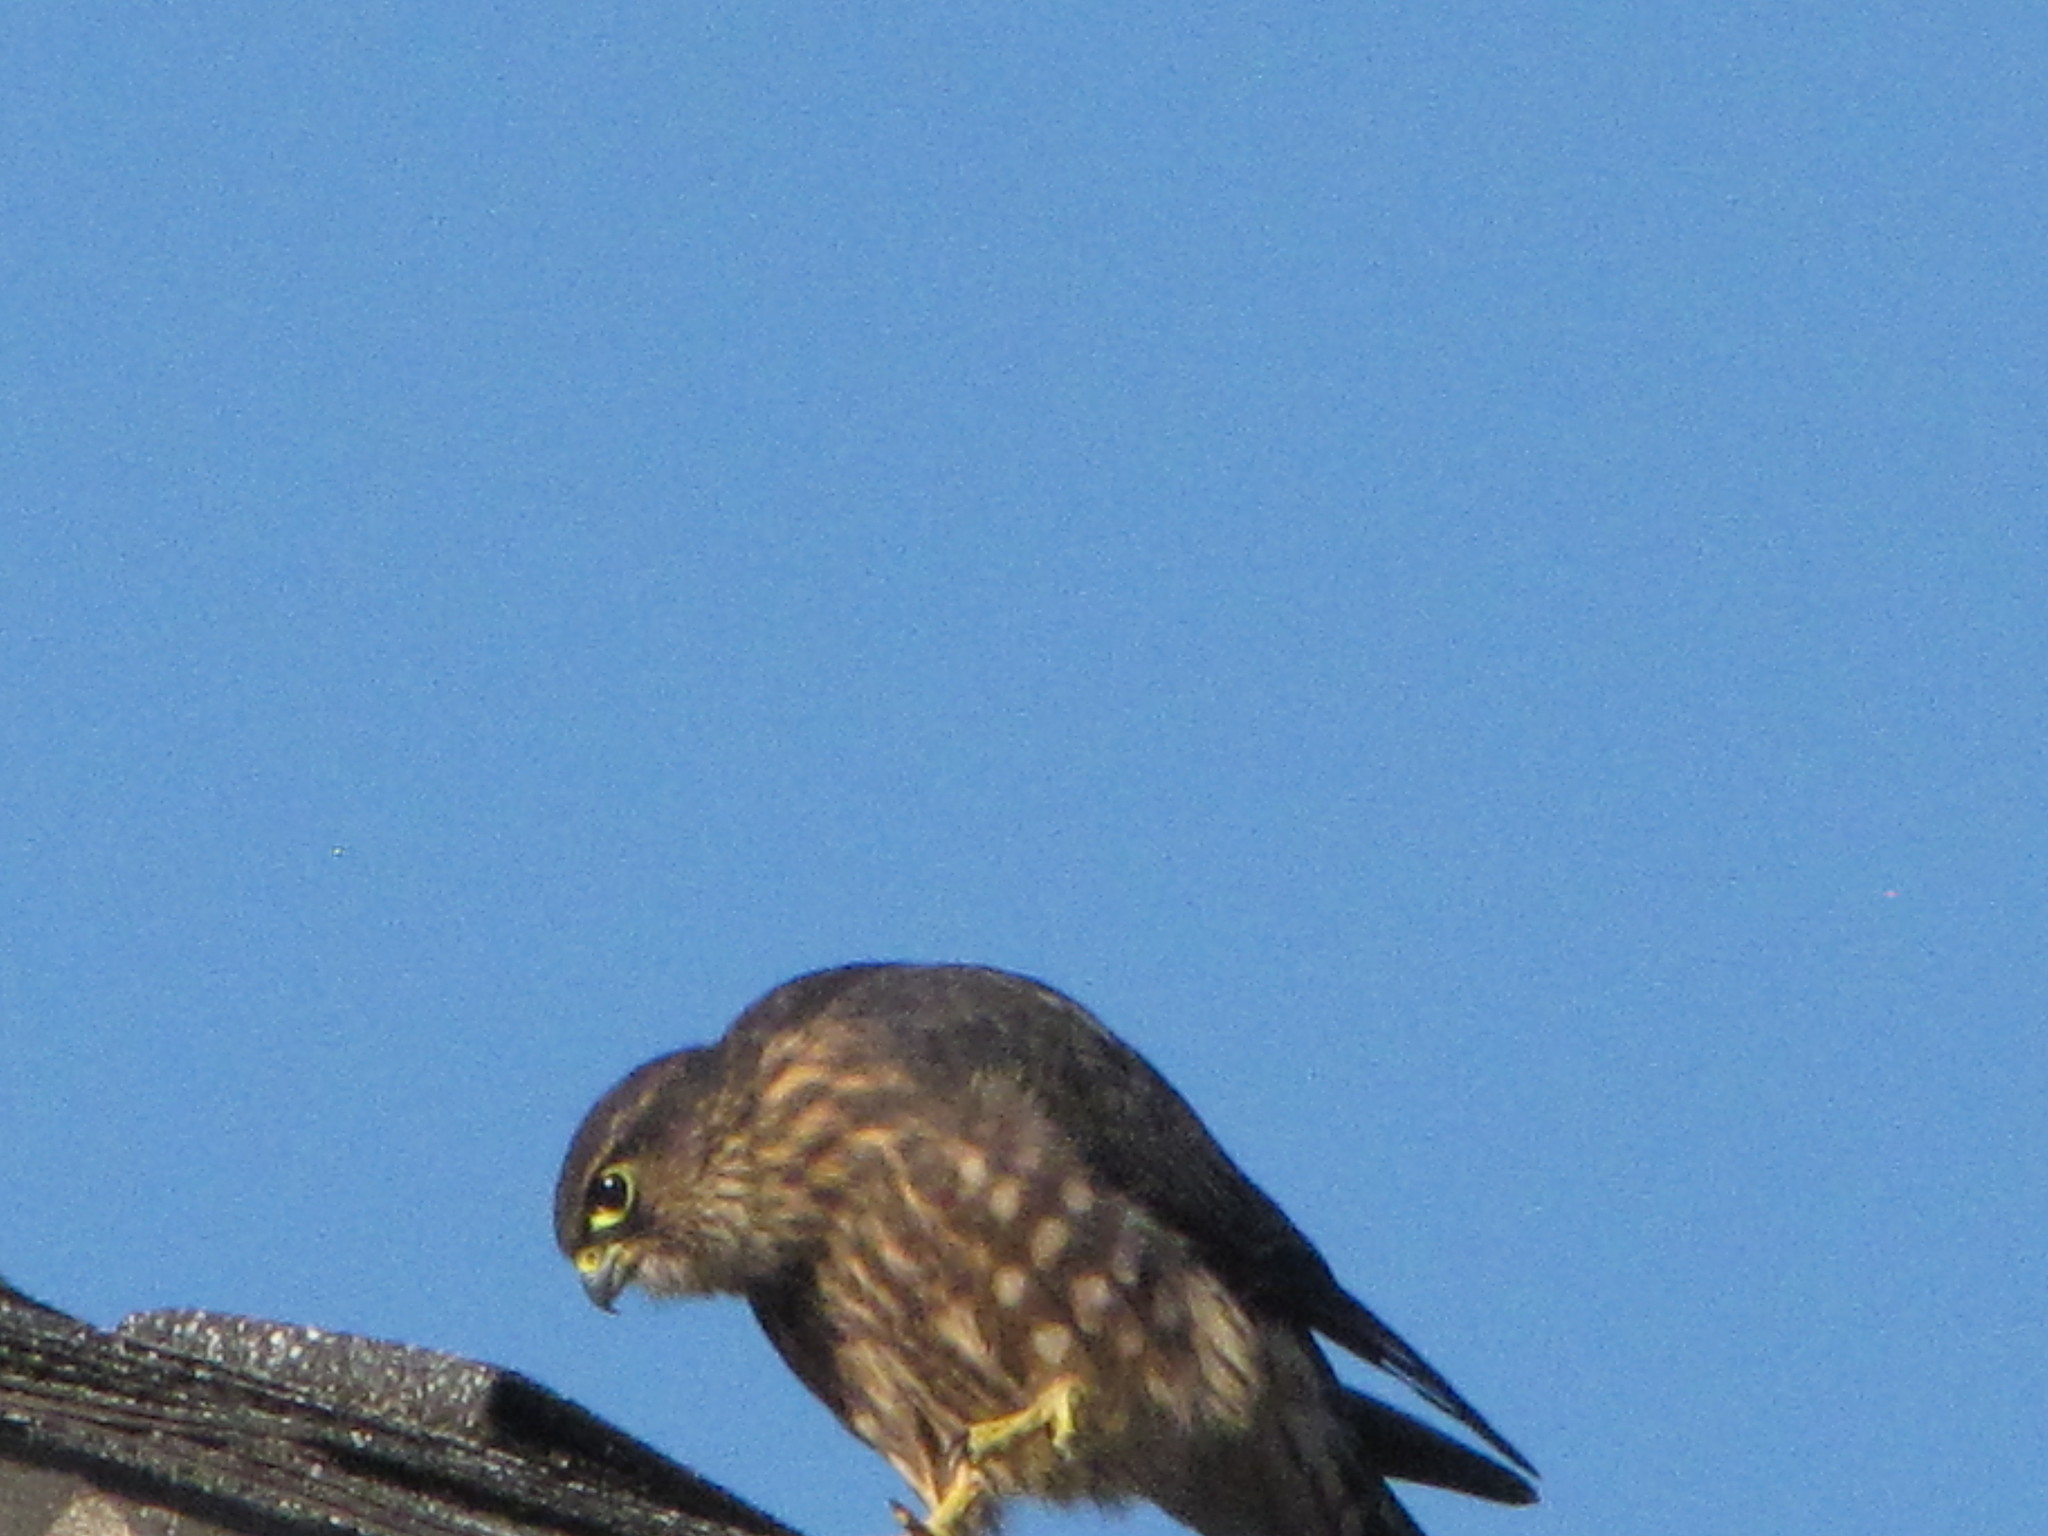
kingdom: Animalia
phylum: Chordata
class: Aves
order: Falconiformes
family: Falconidae
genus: Falco
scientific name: Falco columbarius
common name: Merlin
